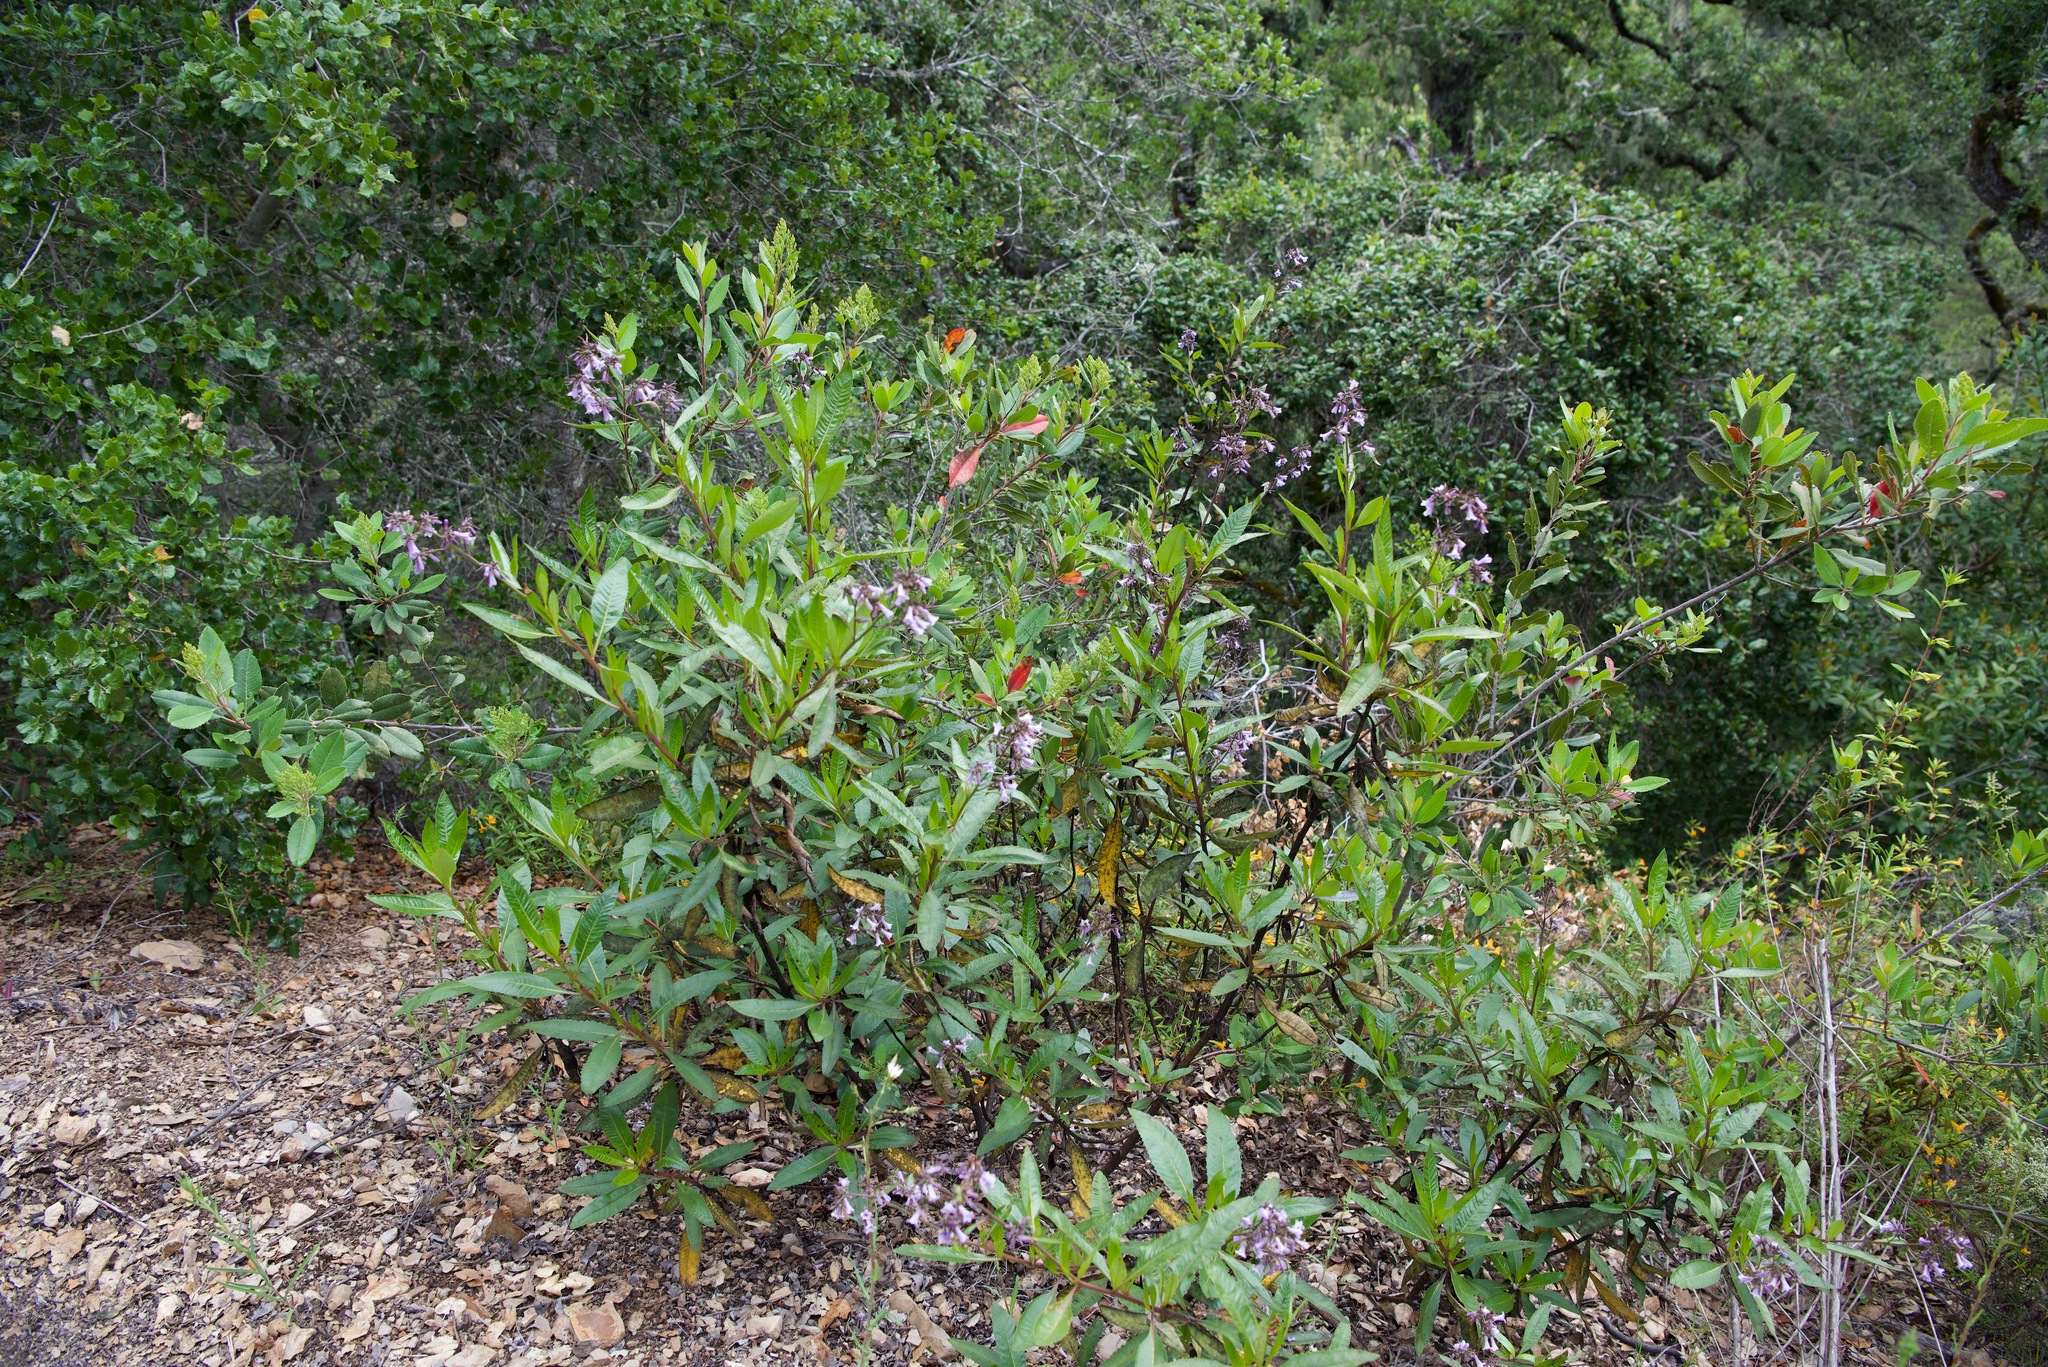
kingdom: Plantae
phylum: Tracheophyta
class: Magnoliopsida
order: Boraginales
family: Namaceae
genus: Eriodictyon
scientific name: Eriodictyon californicum
